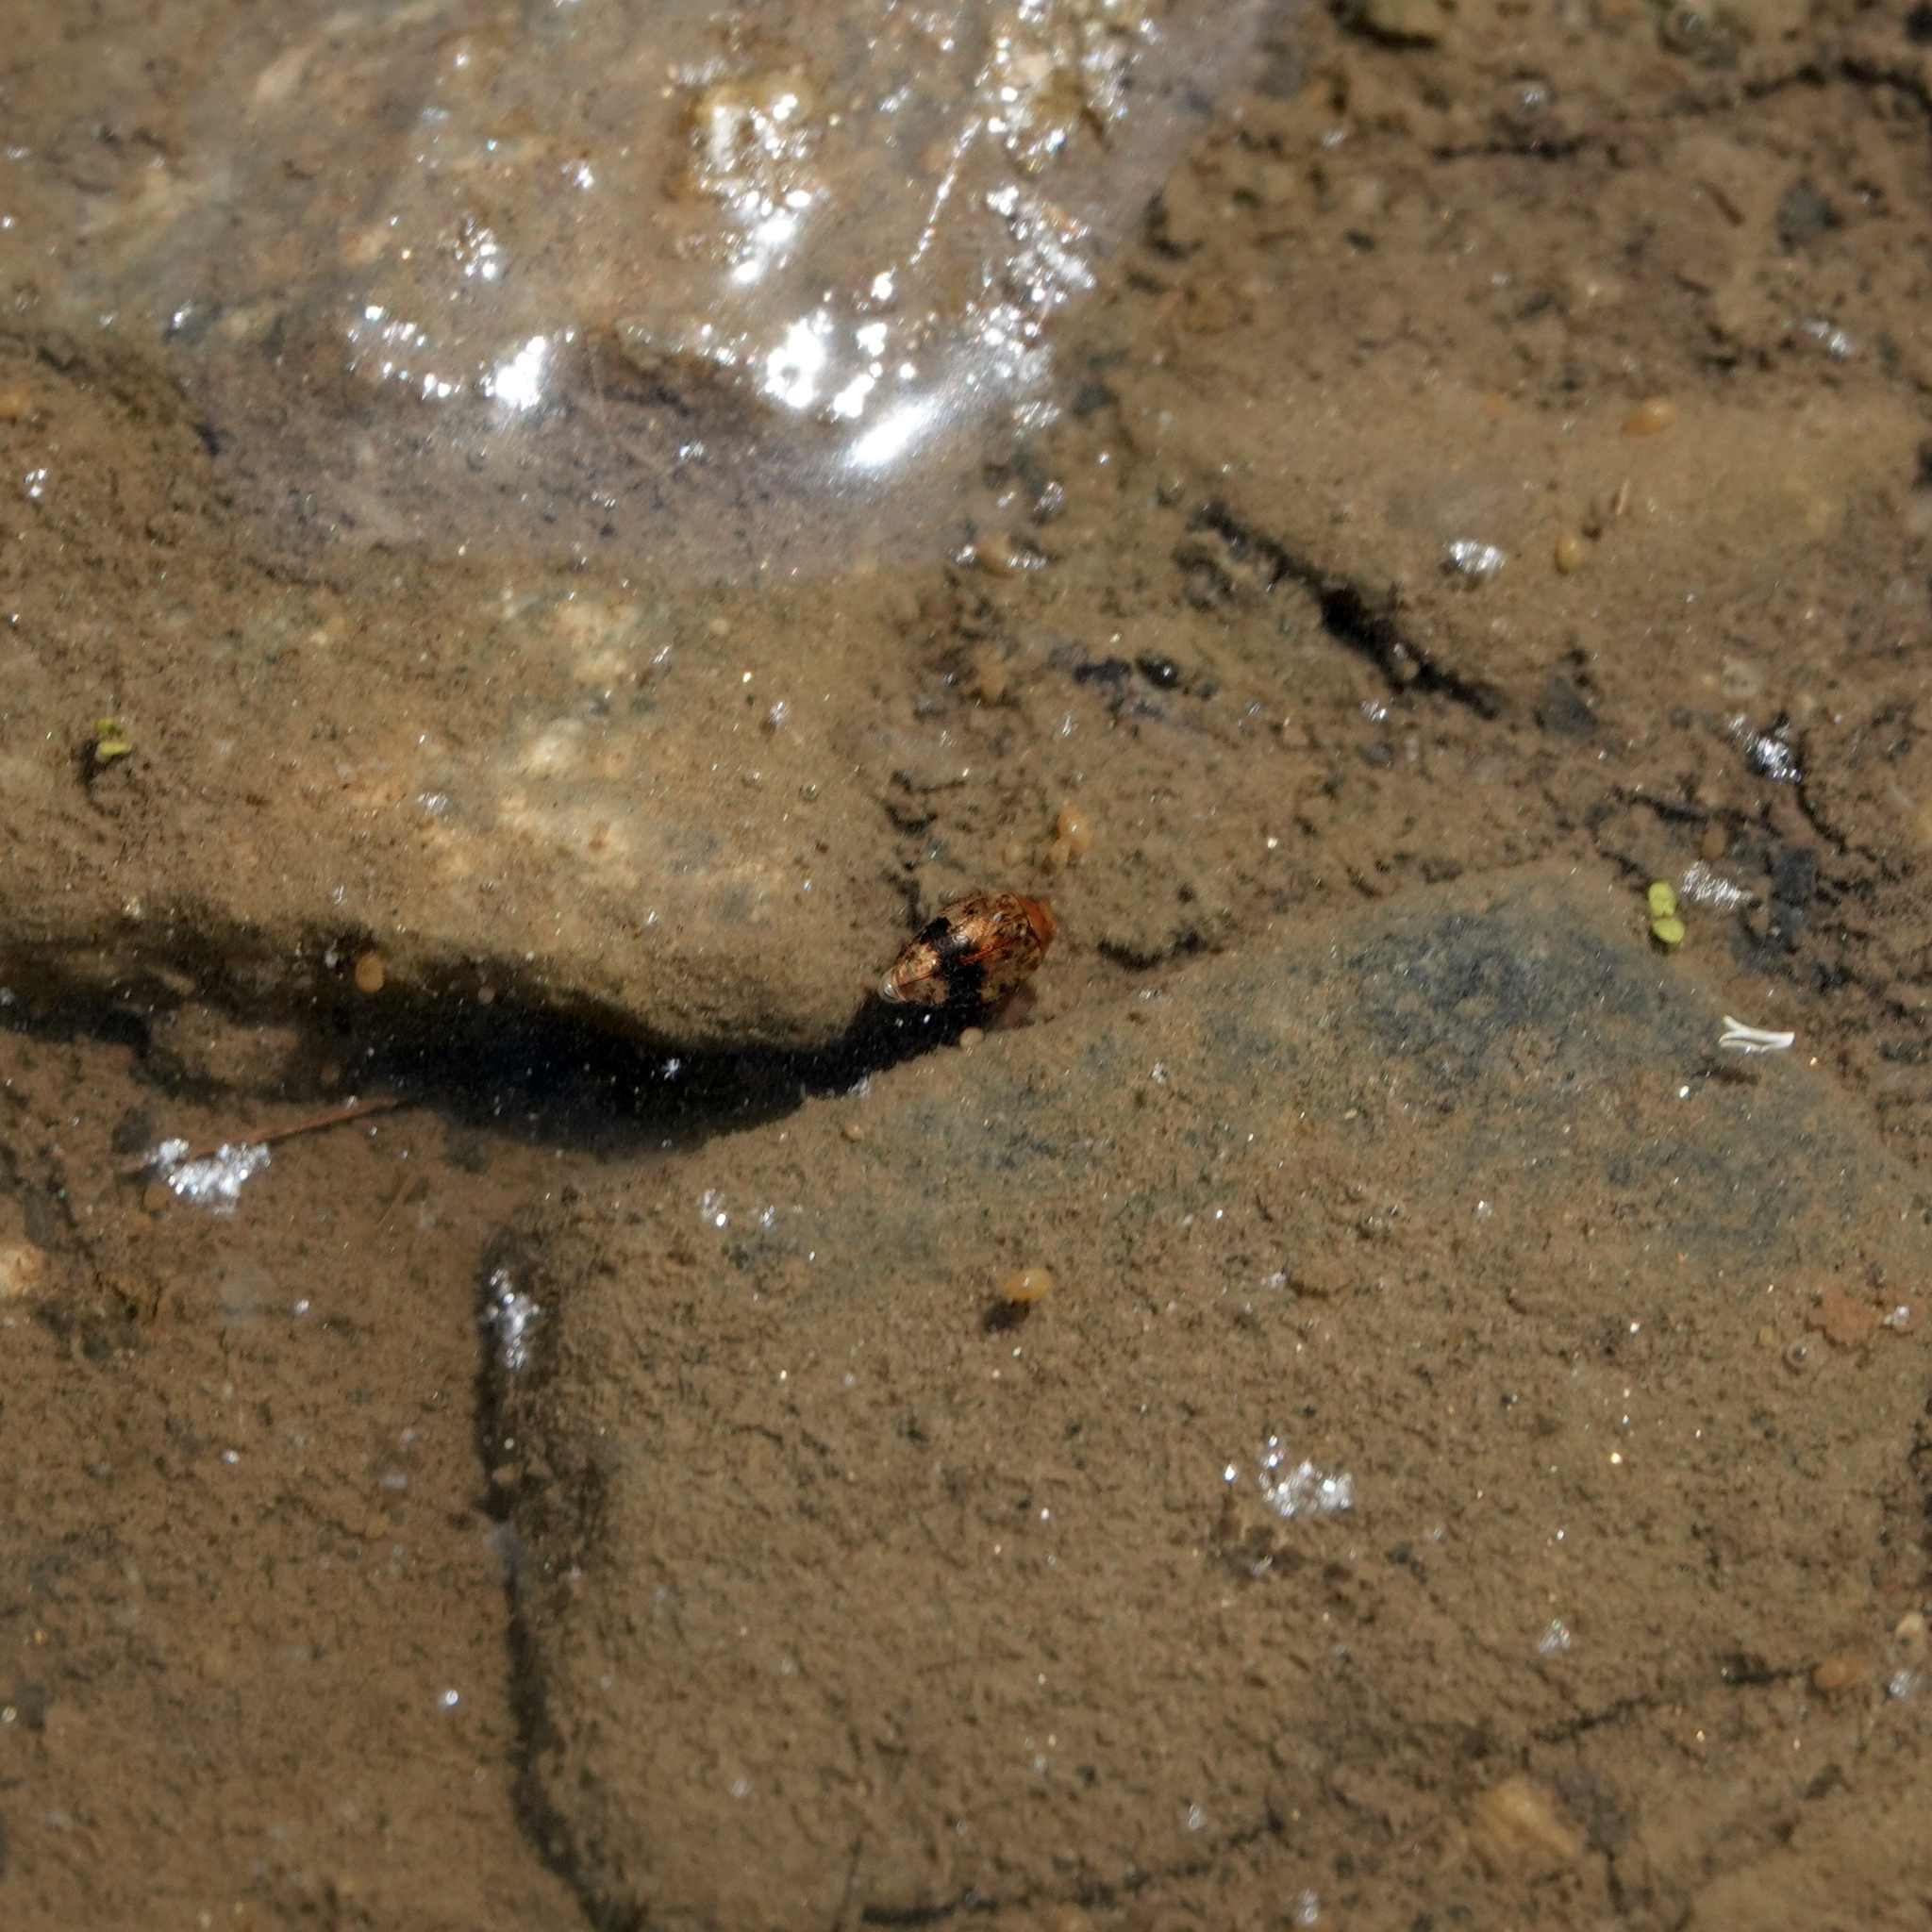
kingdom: Animalia
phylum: Arthropoda
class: Insecta
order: Coleoptera
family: Dytiscidae
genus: Laccophilus
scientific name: Laccophilus fasciatus
